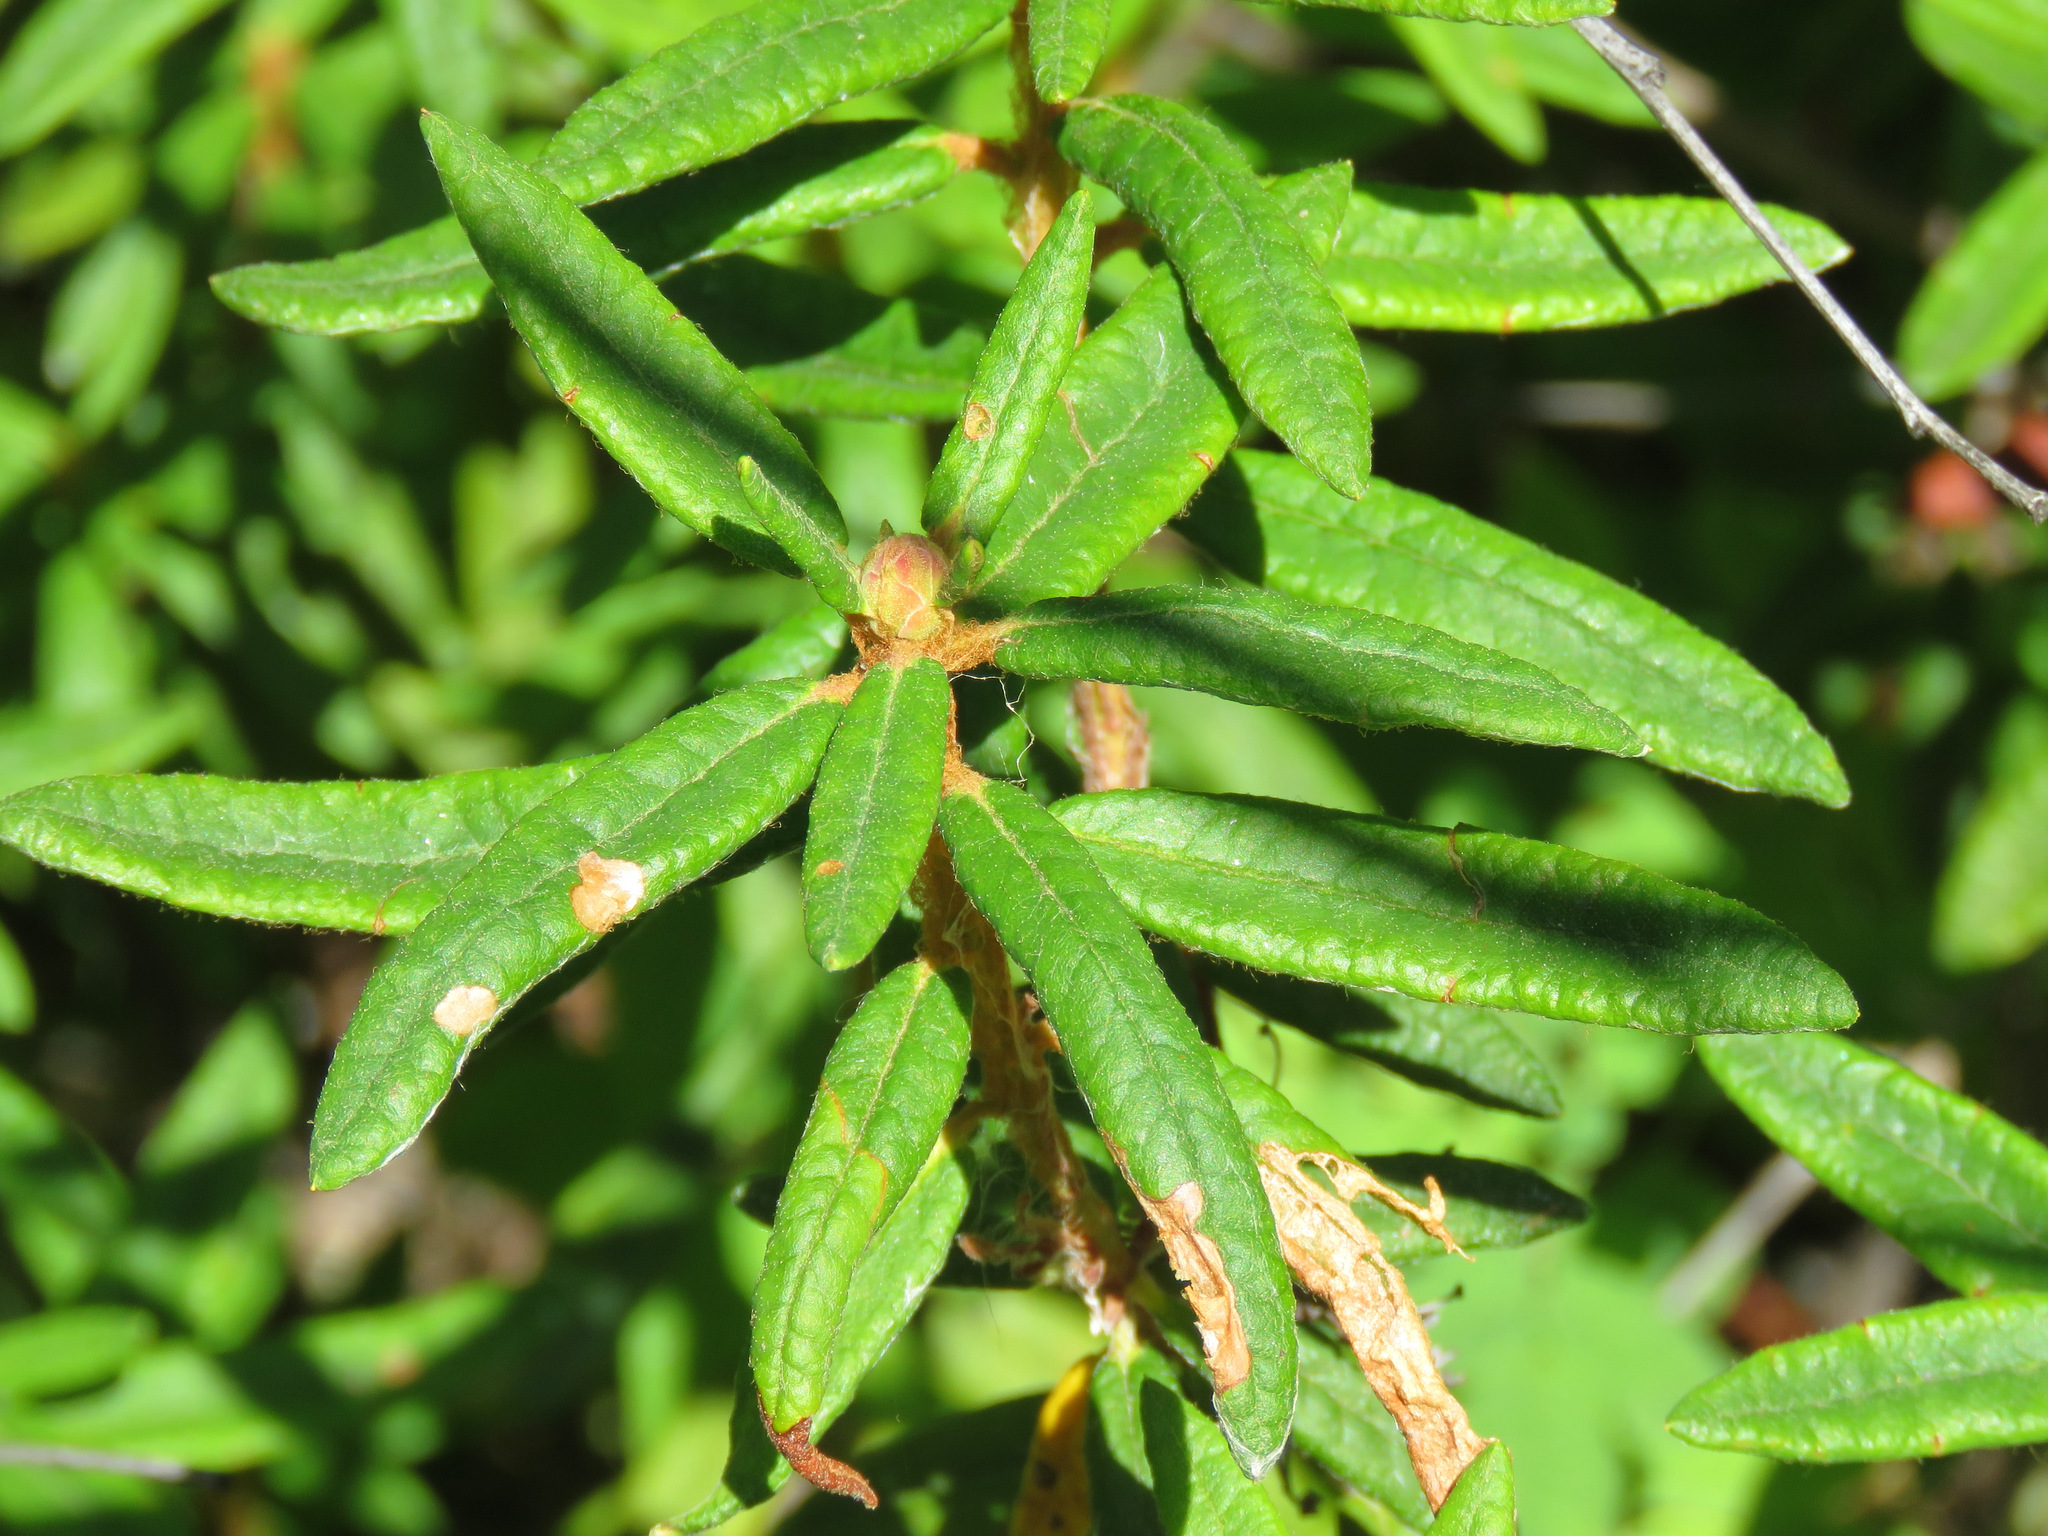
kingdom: Plantae
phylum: Tracheophyta
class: Magnoliopsida
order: Ericales
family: Ericaceae
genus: Rhododendron
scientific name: Rhododendron groenlandicum
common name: Bog labrador tea
